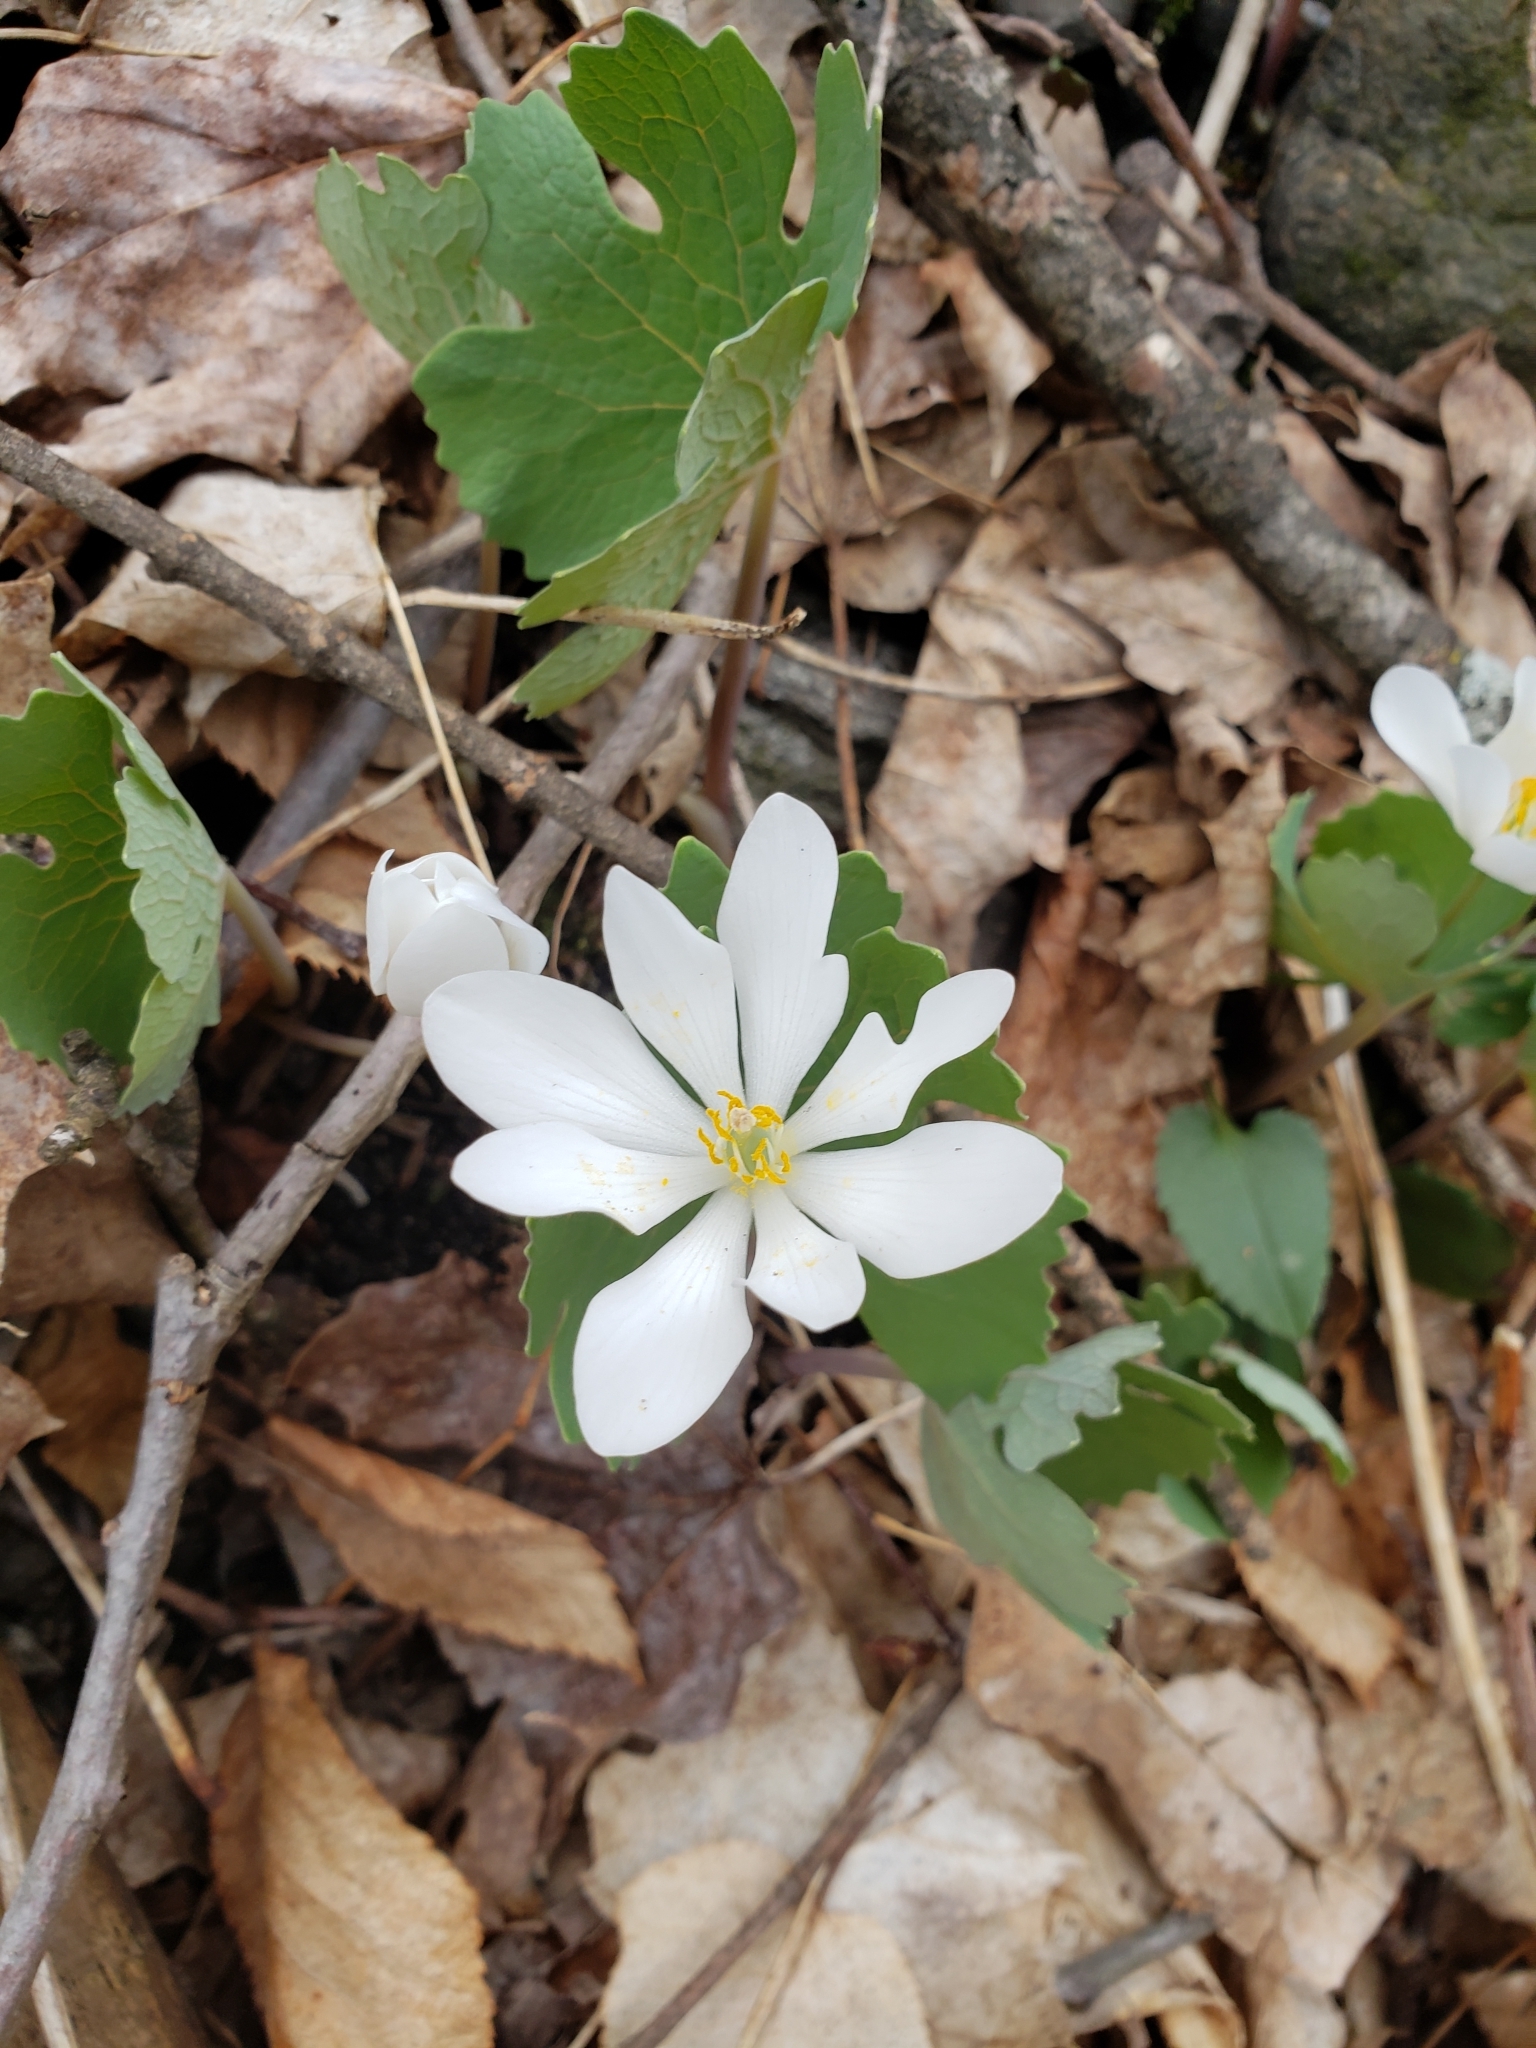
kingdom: Plantae
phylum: Tracheophyta
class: Magnoliopsida
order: Ranunculales
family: Papaveraceae
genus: Sanguinaria
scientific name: Sanguinaria canadensis
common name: Bloodroot
